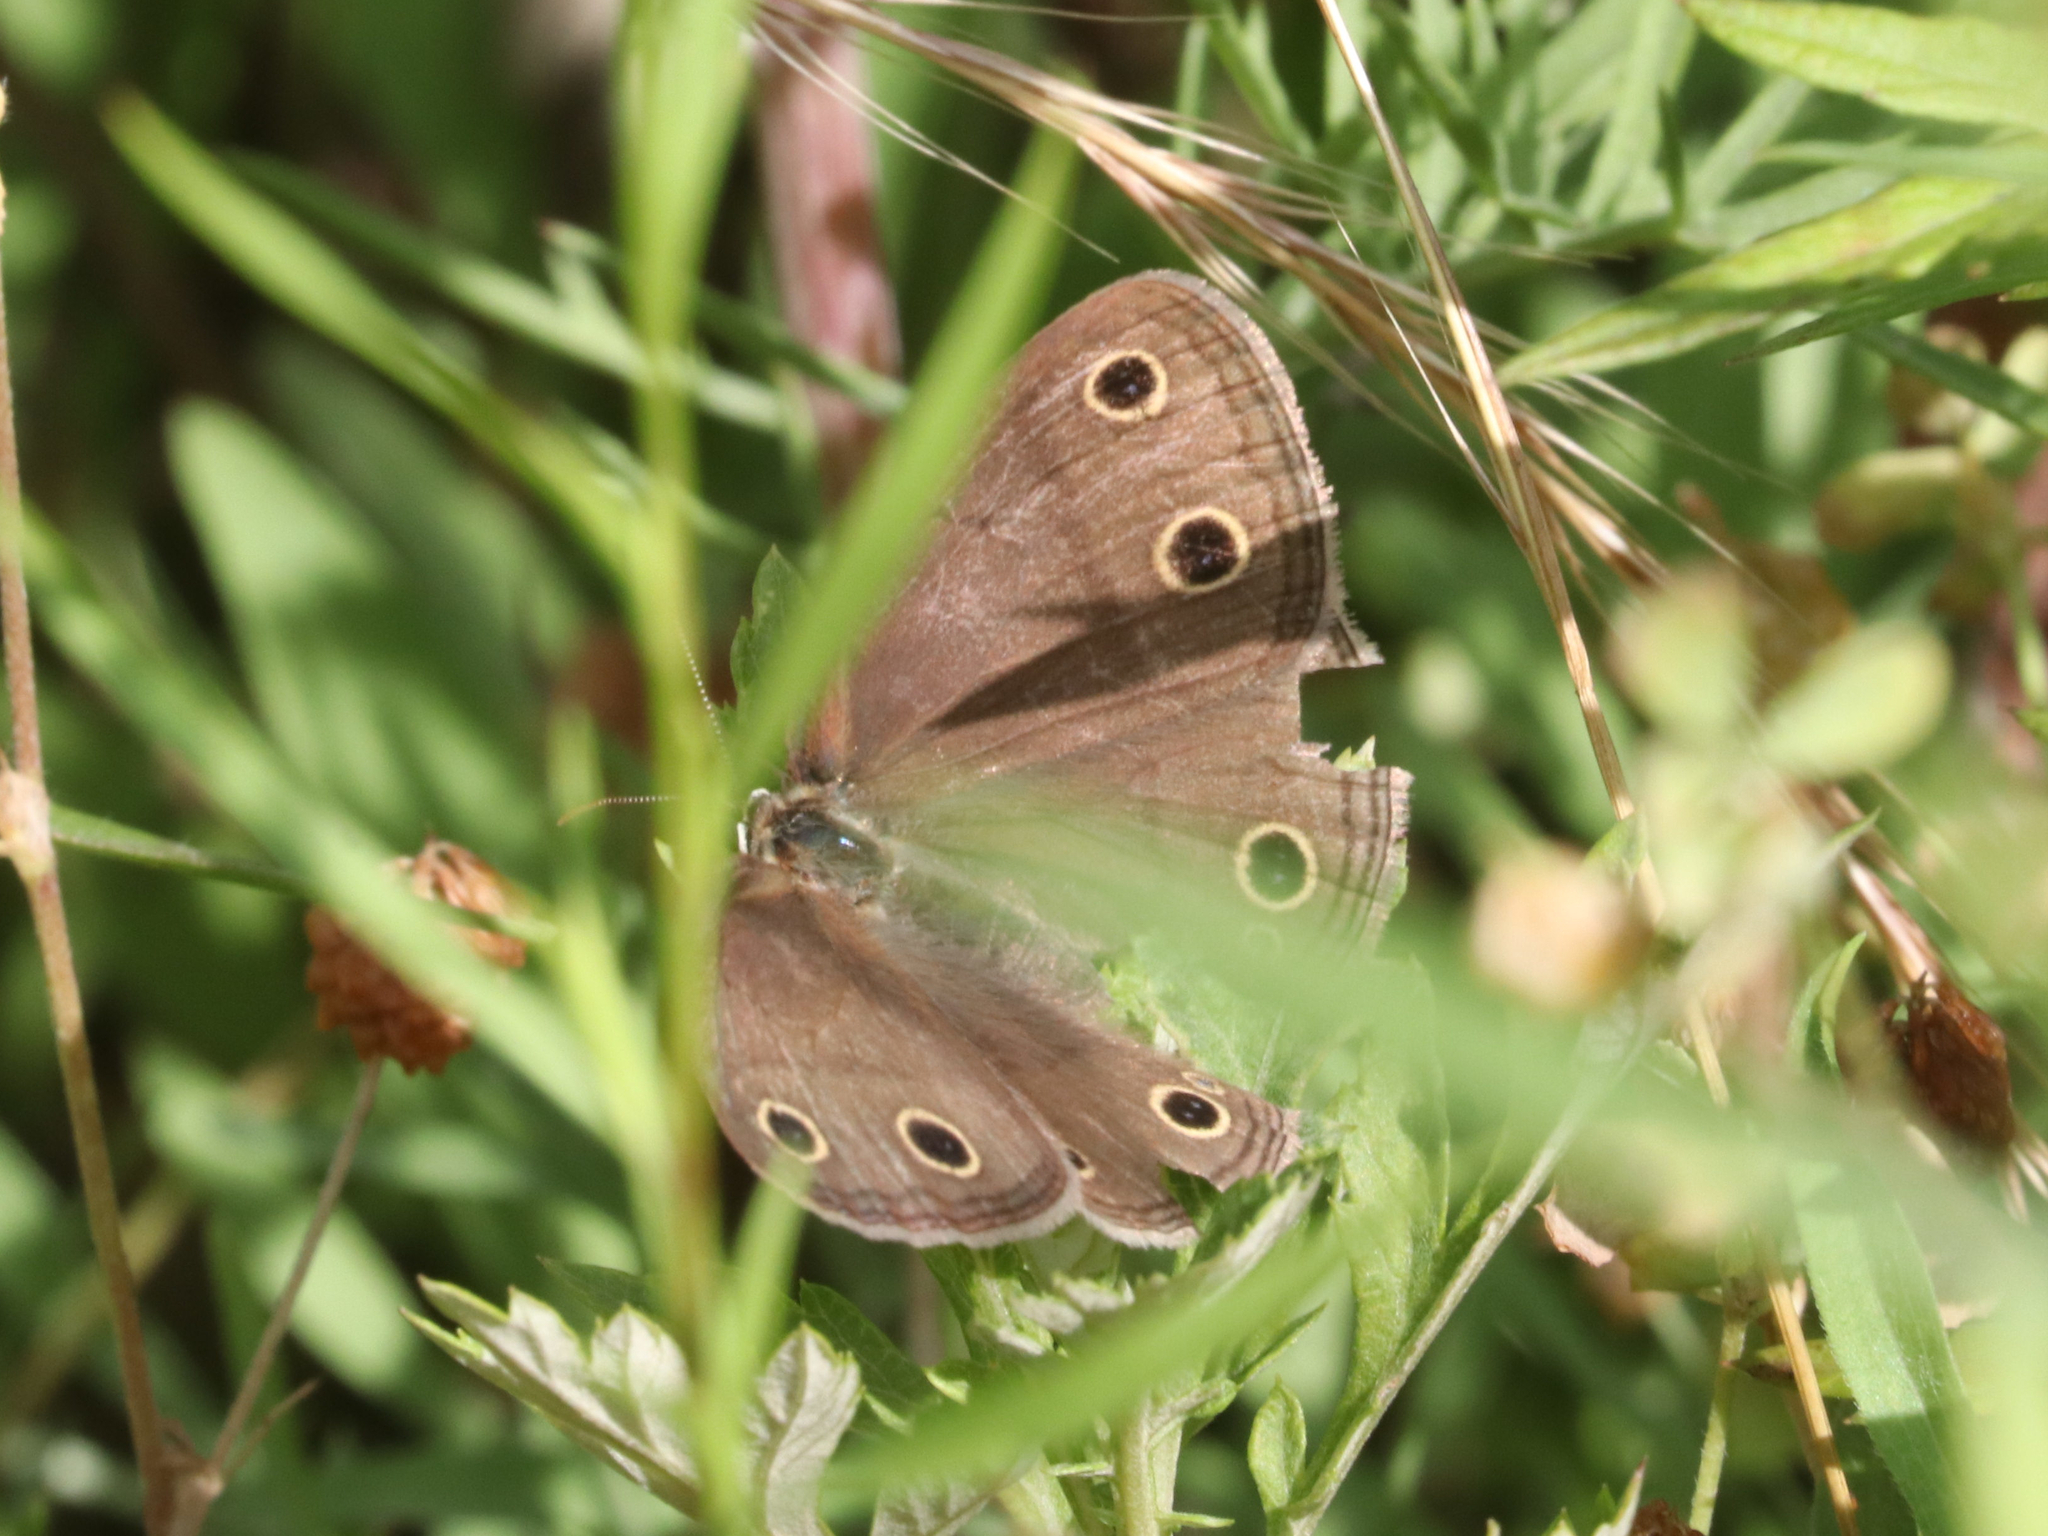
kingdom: Animalia
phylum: Arthropoda
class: Insecta
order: Lepidoptera
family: Nymphalidae
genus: Euptychia
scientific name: Euptychia cymela
